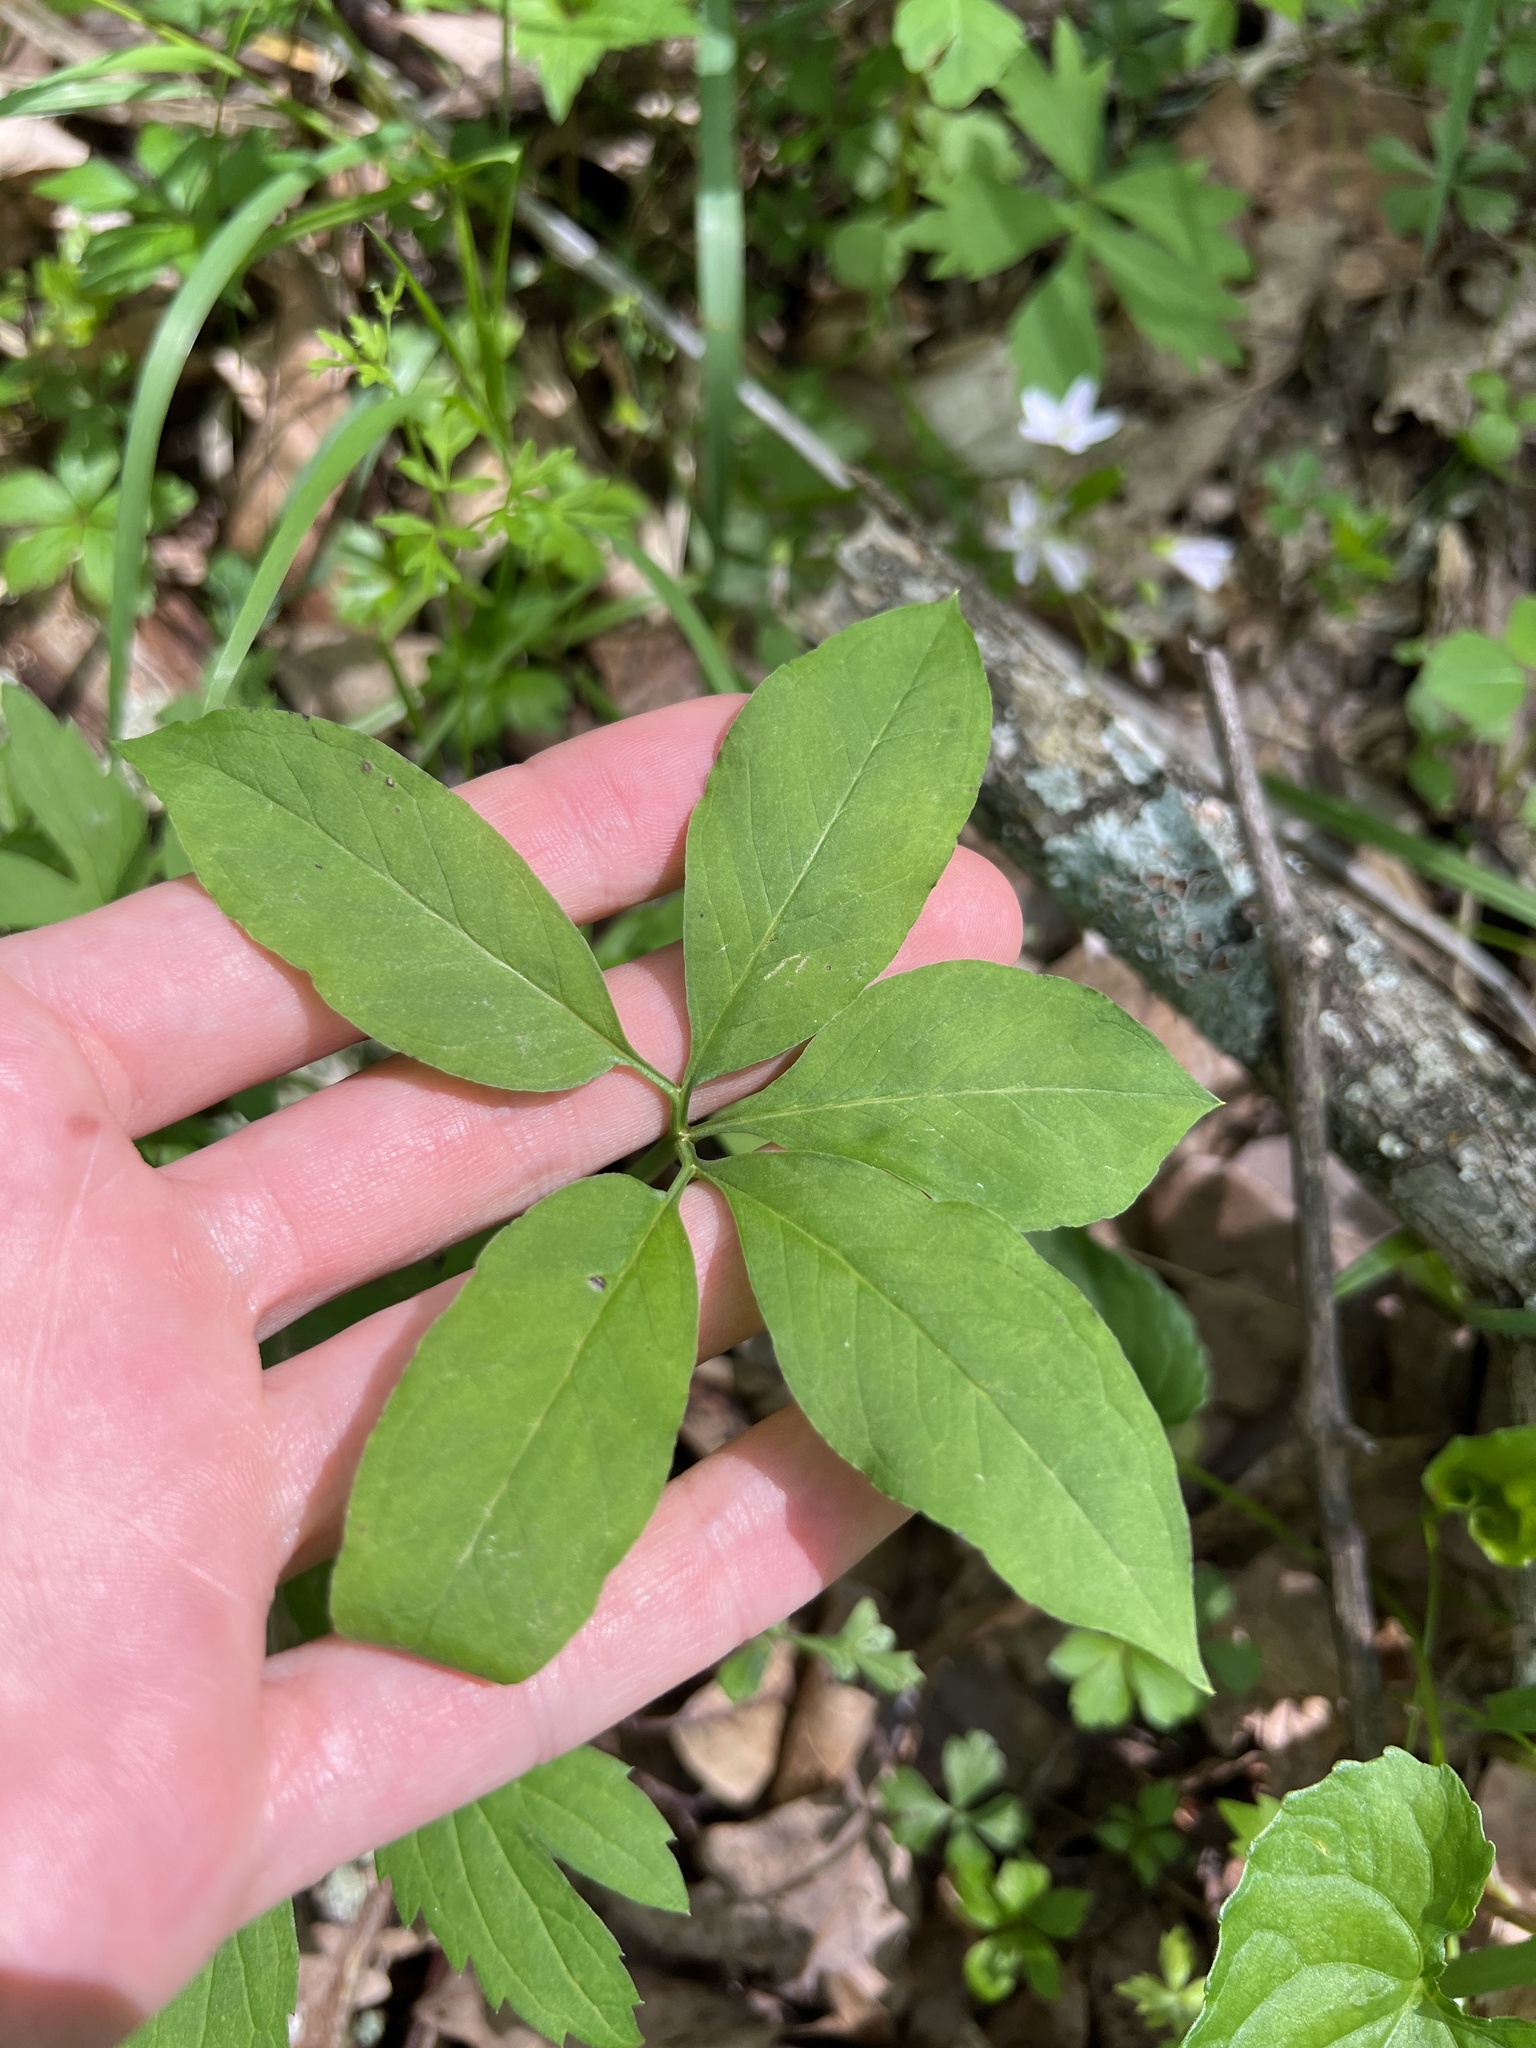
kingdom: Plantae
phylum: Tracheophyta
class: Liliopsida
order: Alismatales
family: Araceae
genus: Arisaema
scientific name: Arisaema dracontium
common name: Dragon-arum
